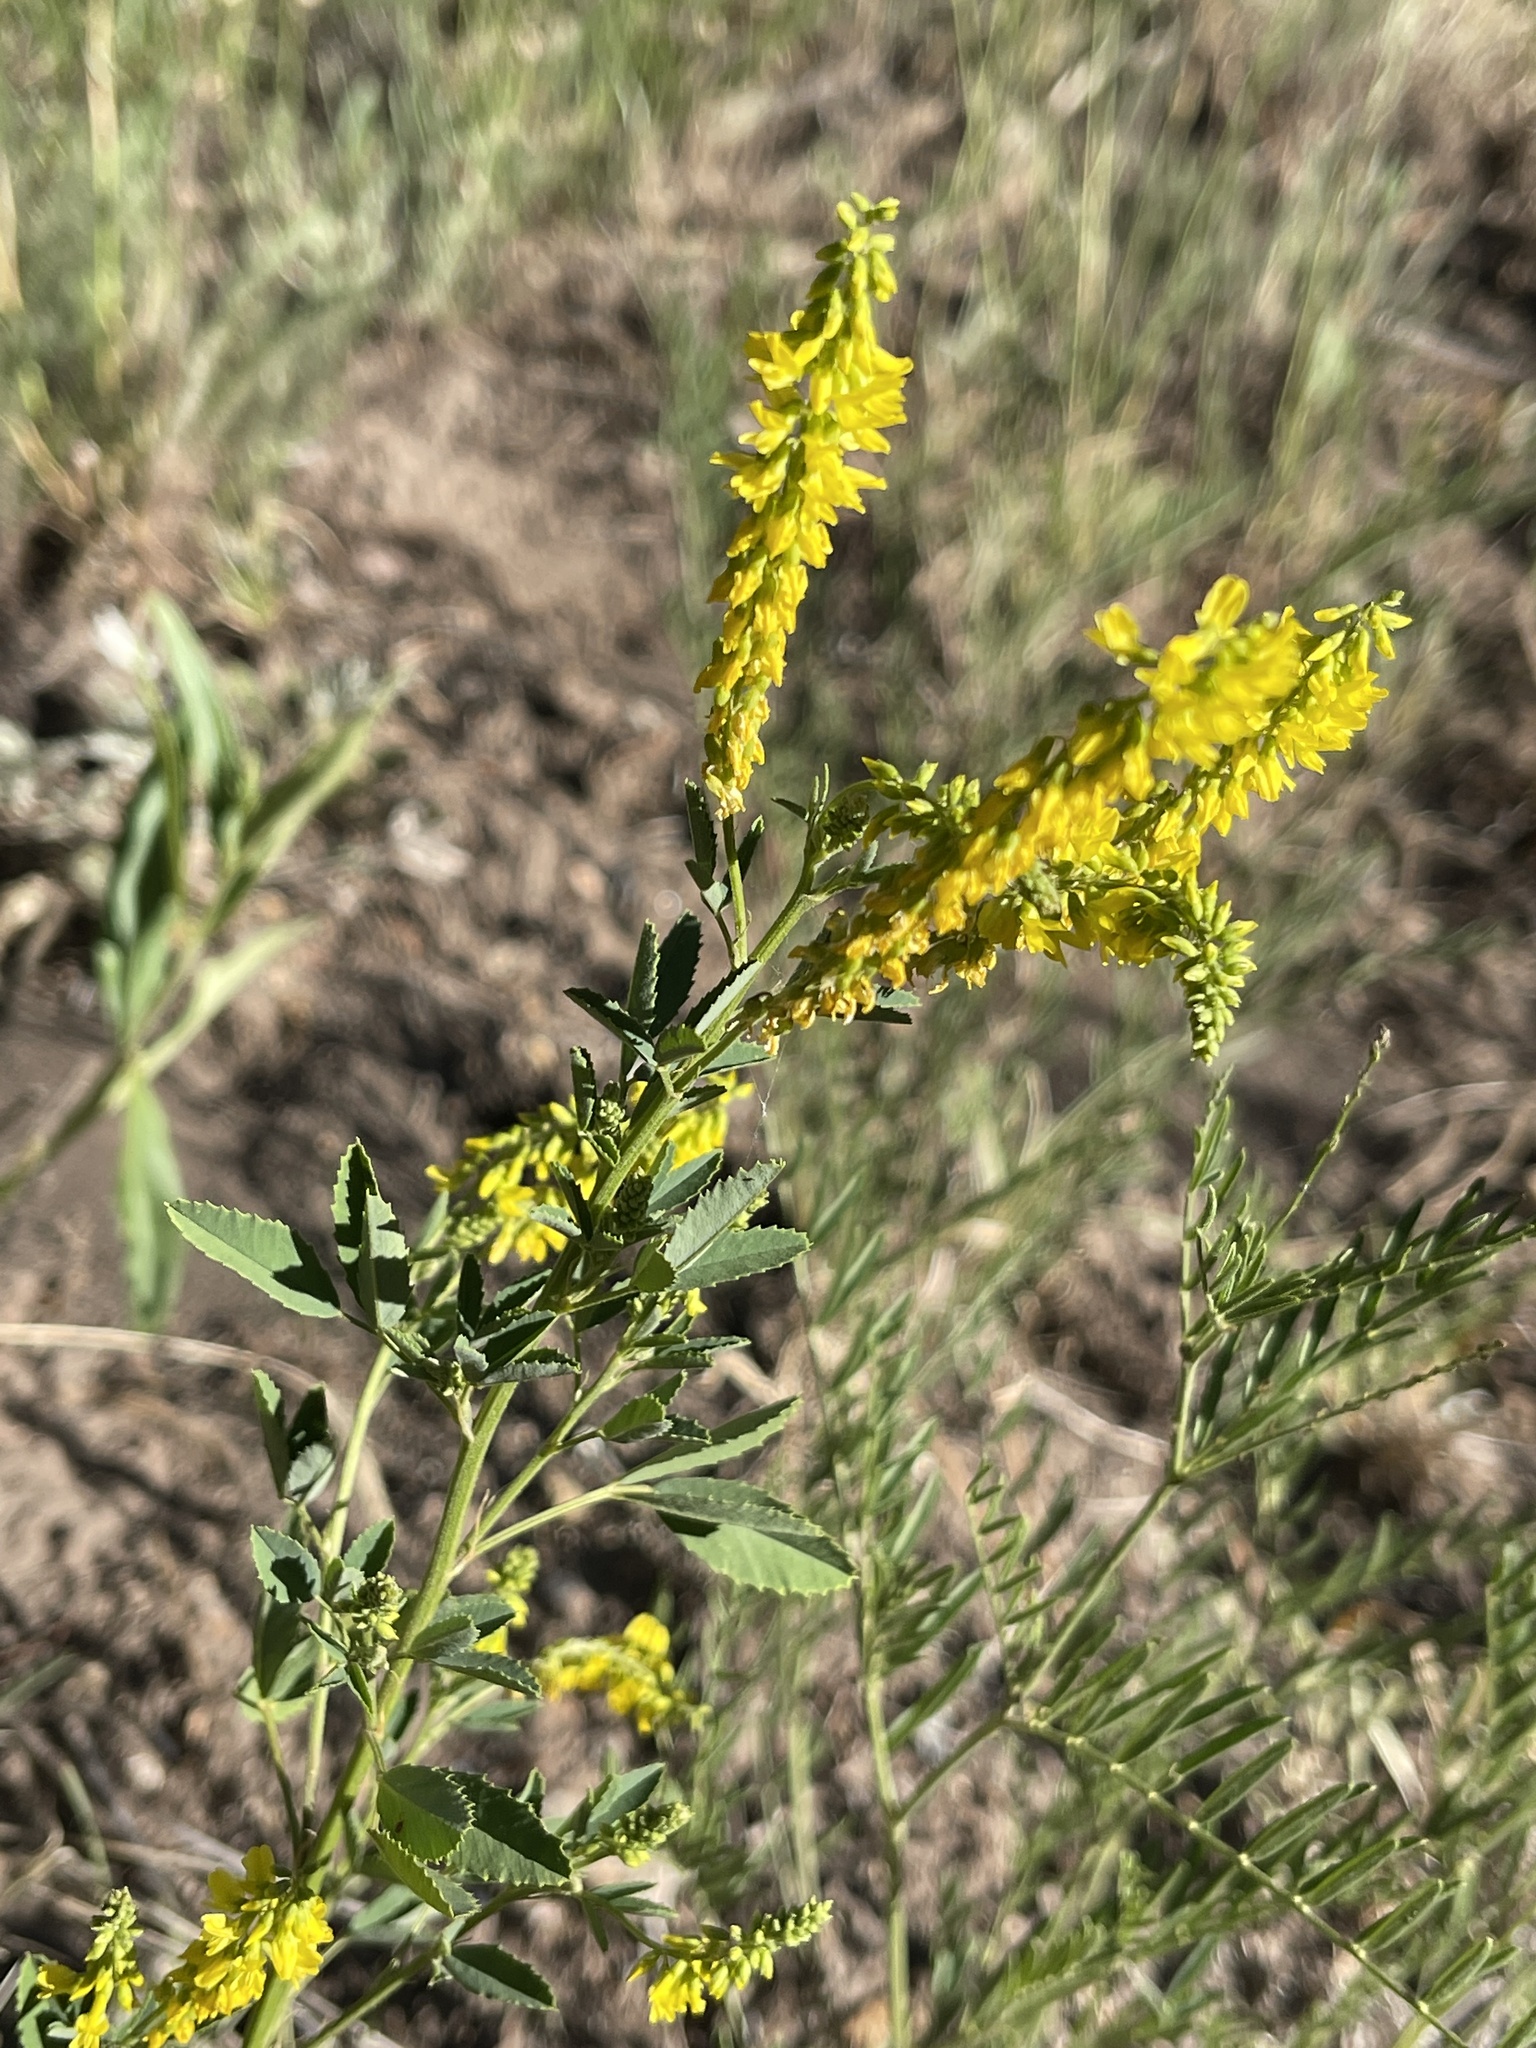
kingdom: Plantae
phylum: Tracheophyta
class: Magnoliopsida
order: Fabales
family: Fabaceae
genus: Melilotus
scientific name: Melilotus officinalis
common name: Sweetclover
